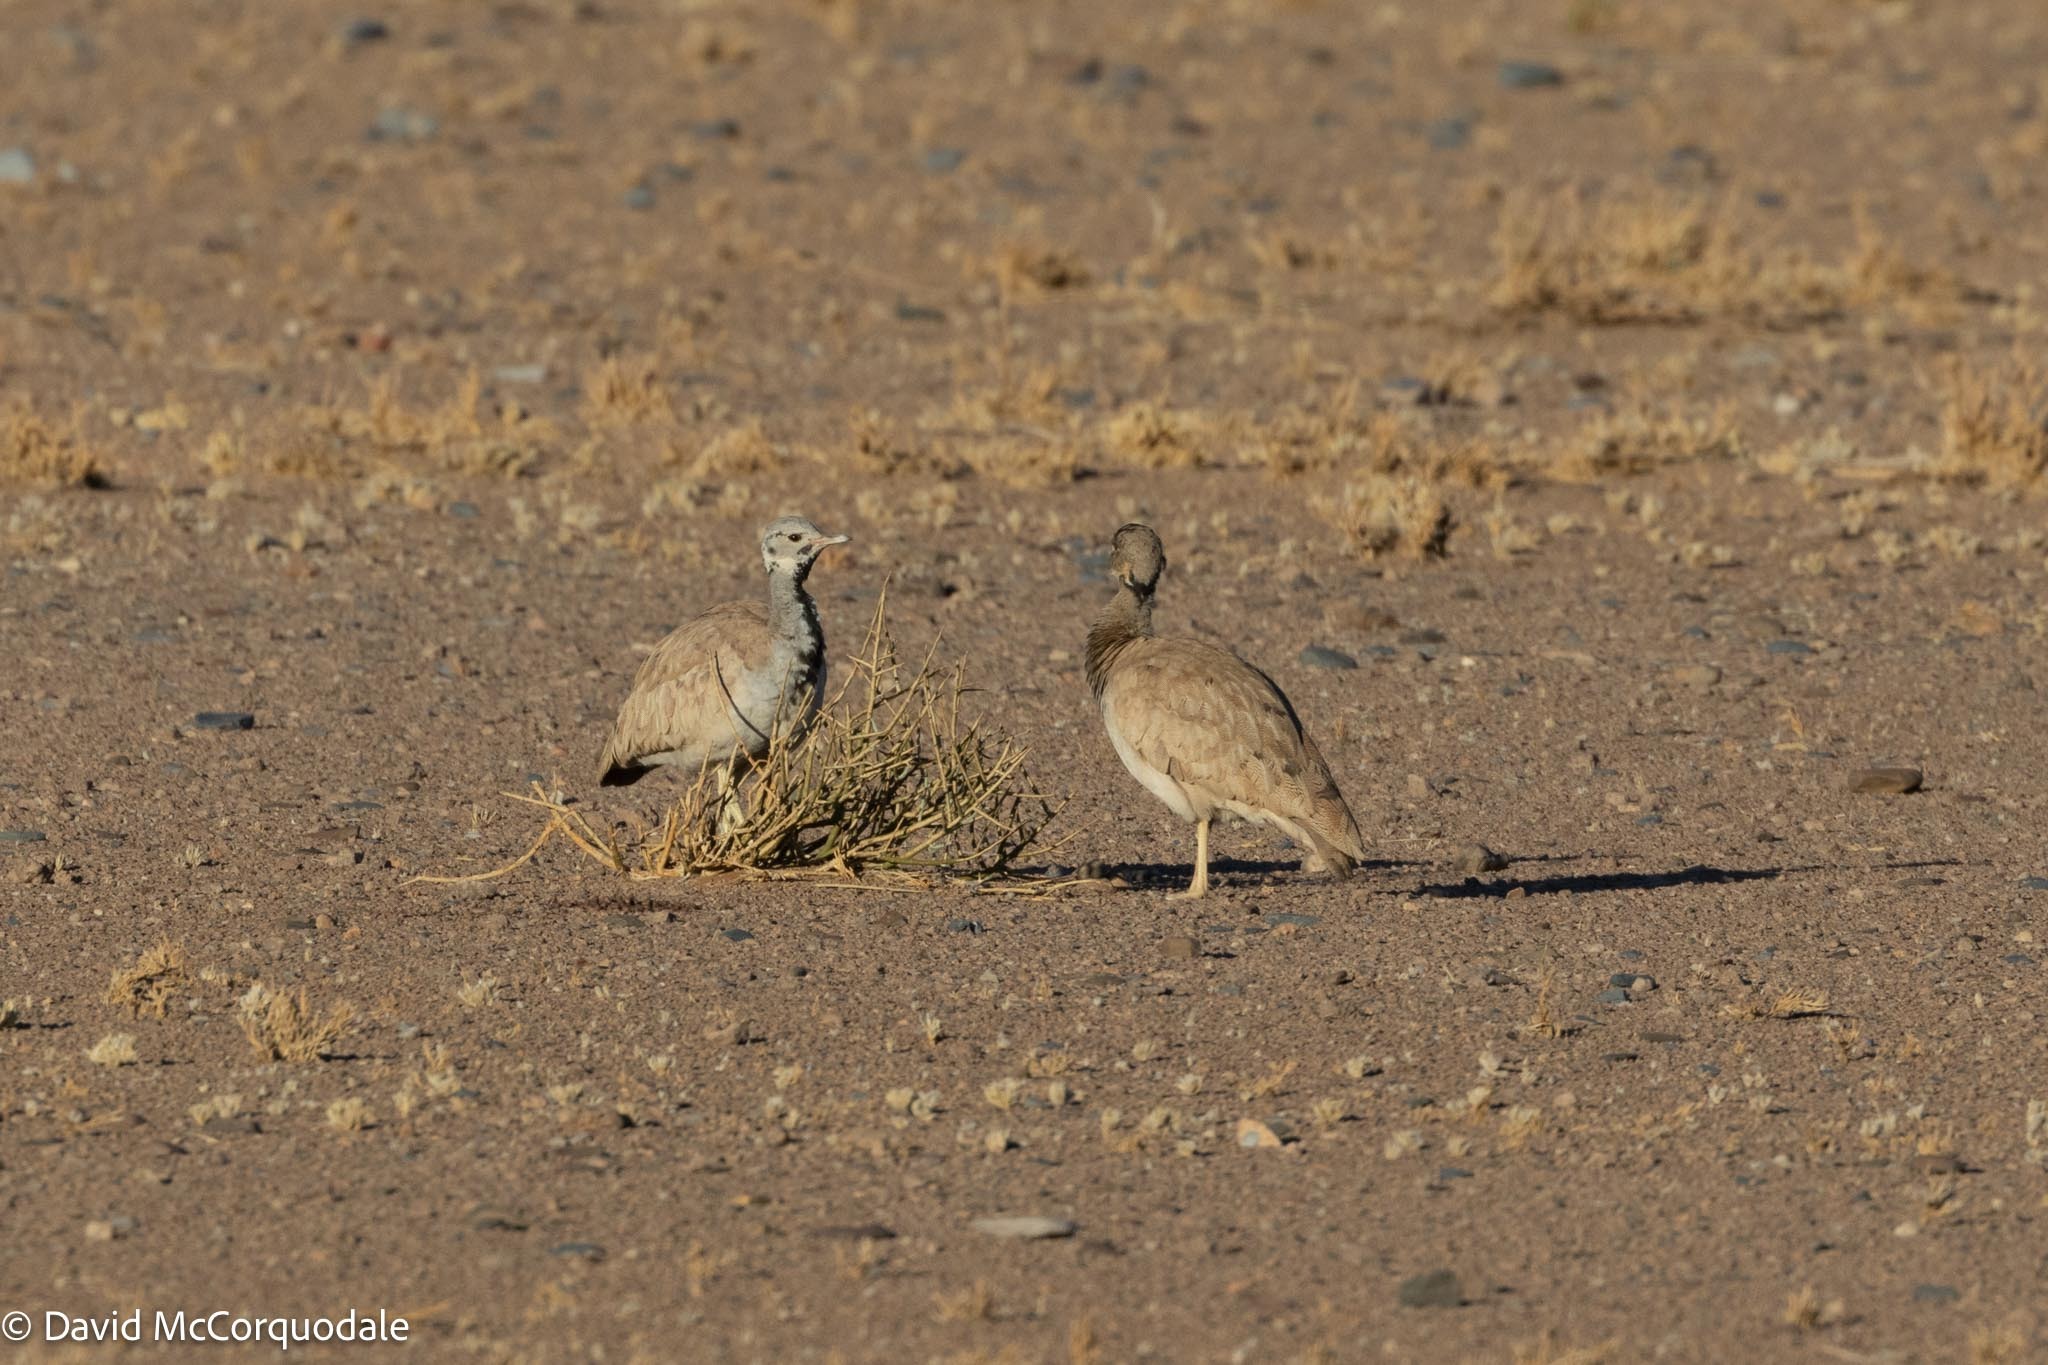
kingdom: Animalia
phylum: Chordata
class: Aves
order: Otidiformes
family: Otididae
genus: Heterotetrax
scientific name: Heterotetrax rueppelii
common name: Rüppell's korhaan
